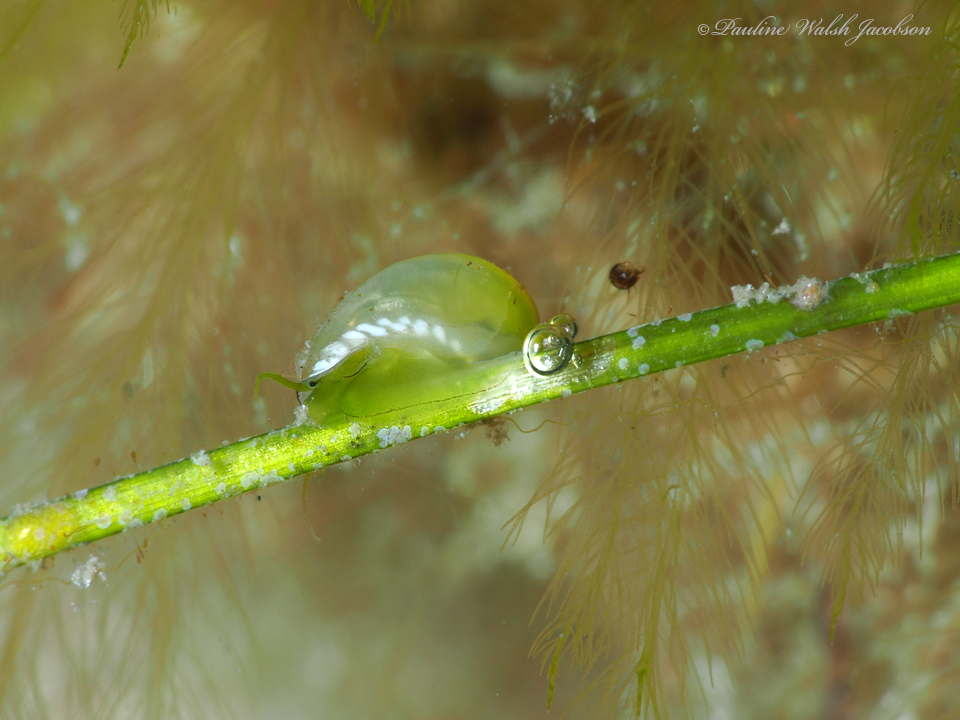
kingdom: Animalia
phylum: Mollusca
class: Gastropoda
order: Cycloneritida
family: Neritidae
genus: Smaragdia
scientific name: Smaragdia viridis
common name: Emerald nerite
